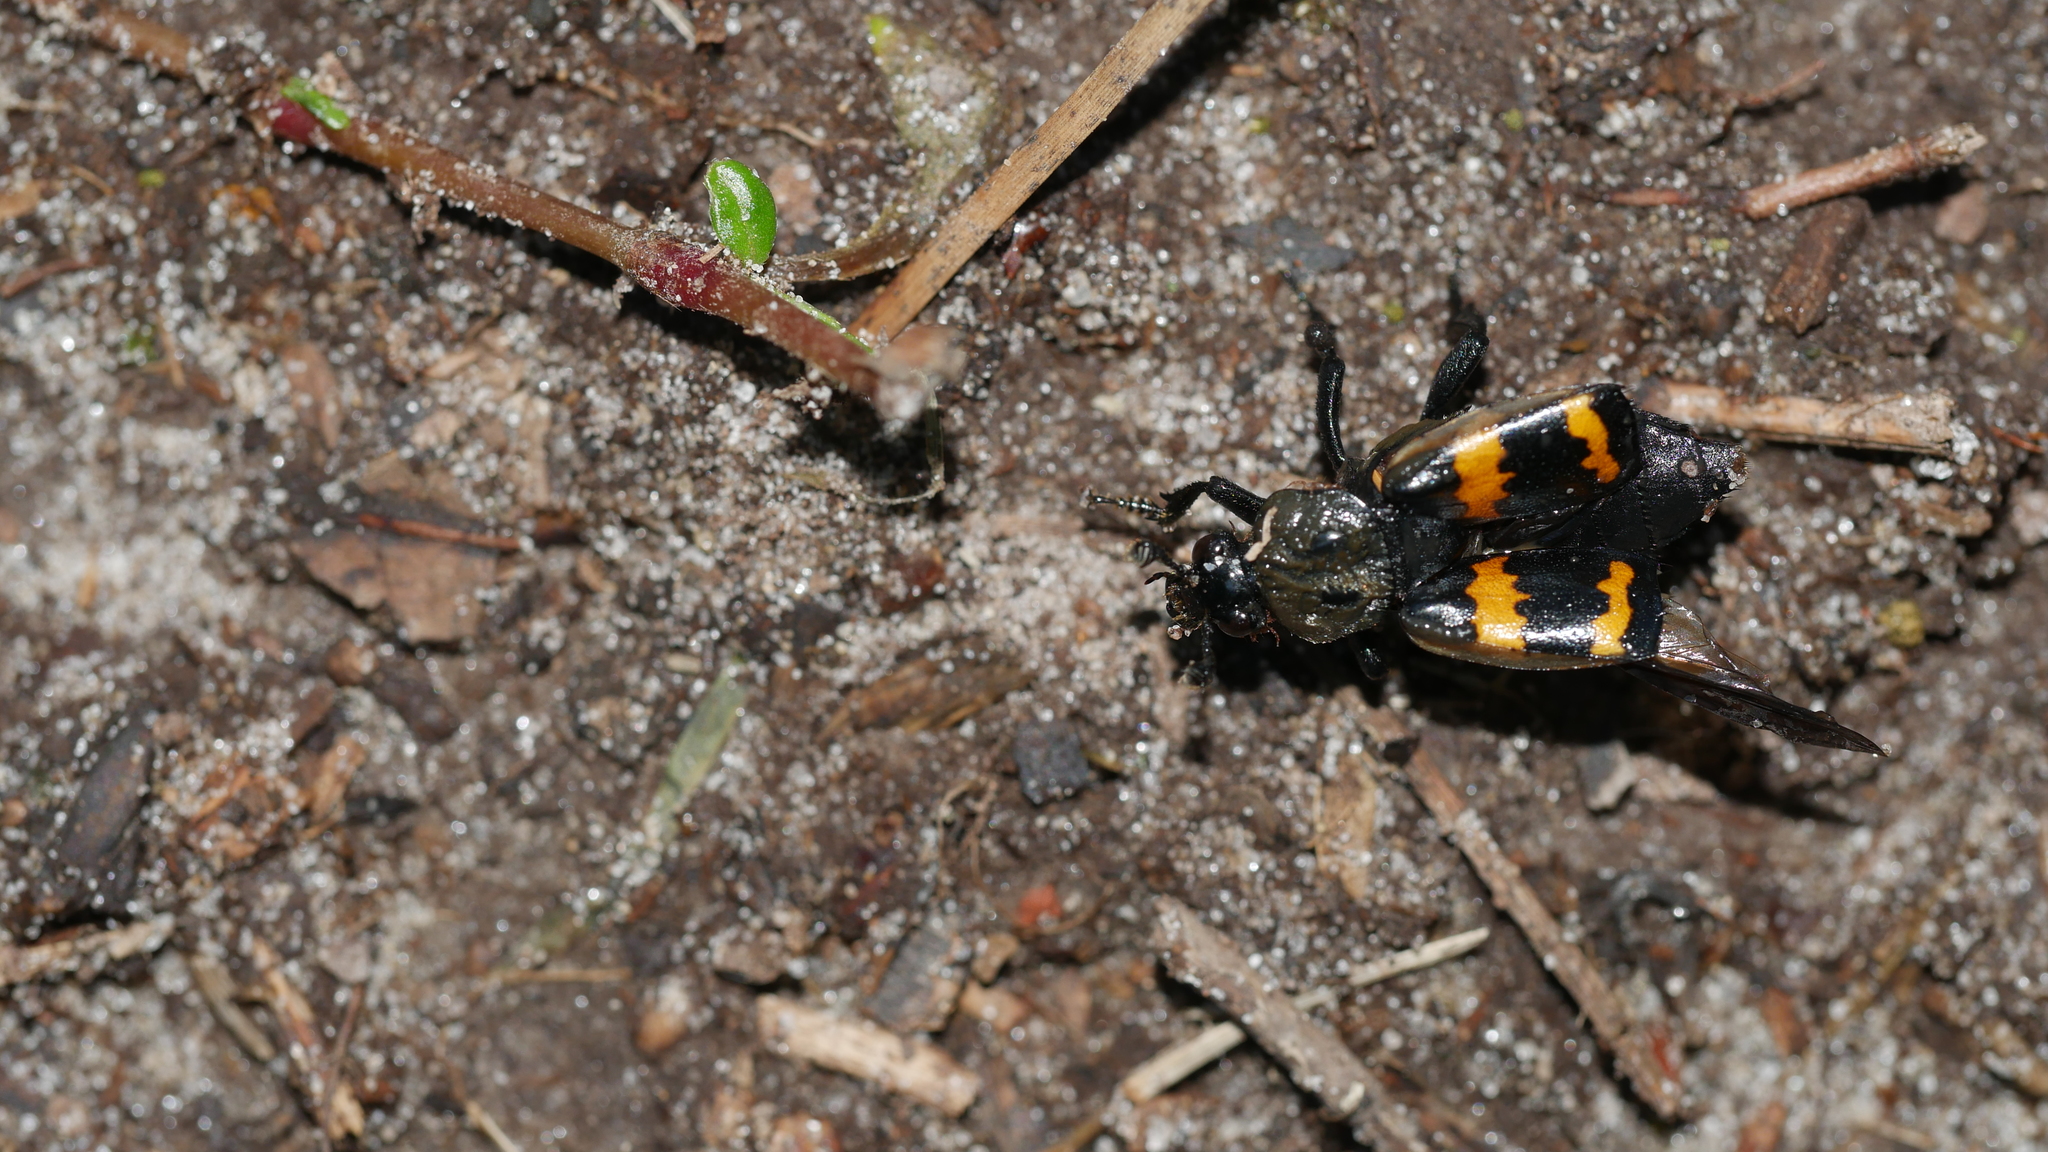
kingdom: Animalia
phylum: Arthropoda
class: Insecta
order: Coleoptera
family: Staphylinidae
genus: Nicrophorus
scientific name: Nicrophorus tomentosus
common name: Tomentose burying beetle
